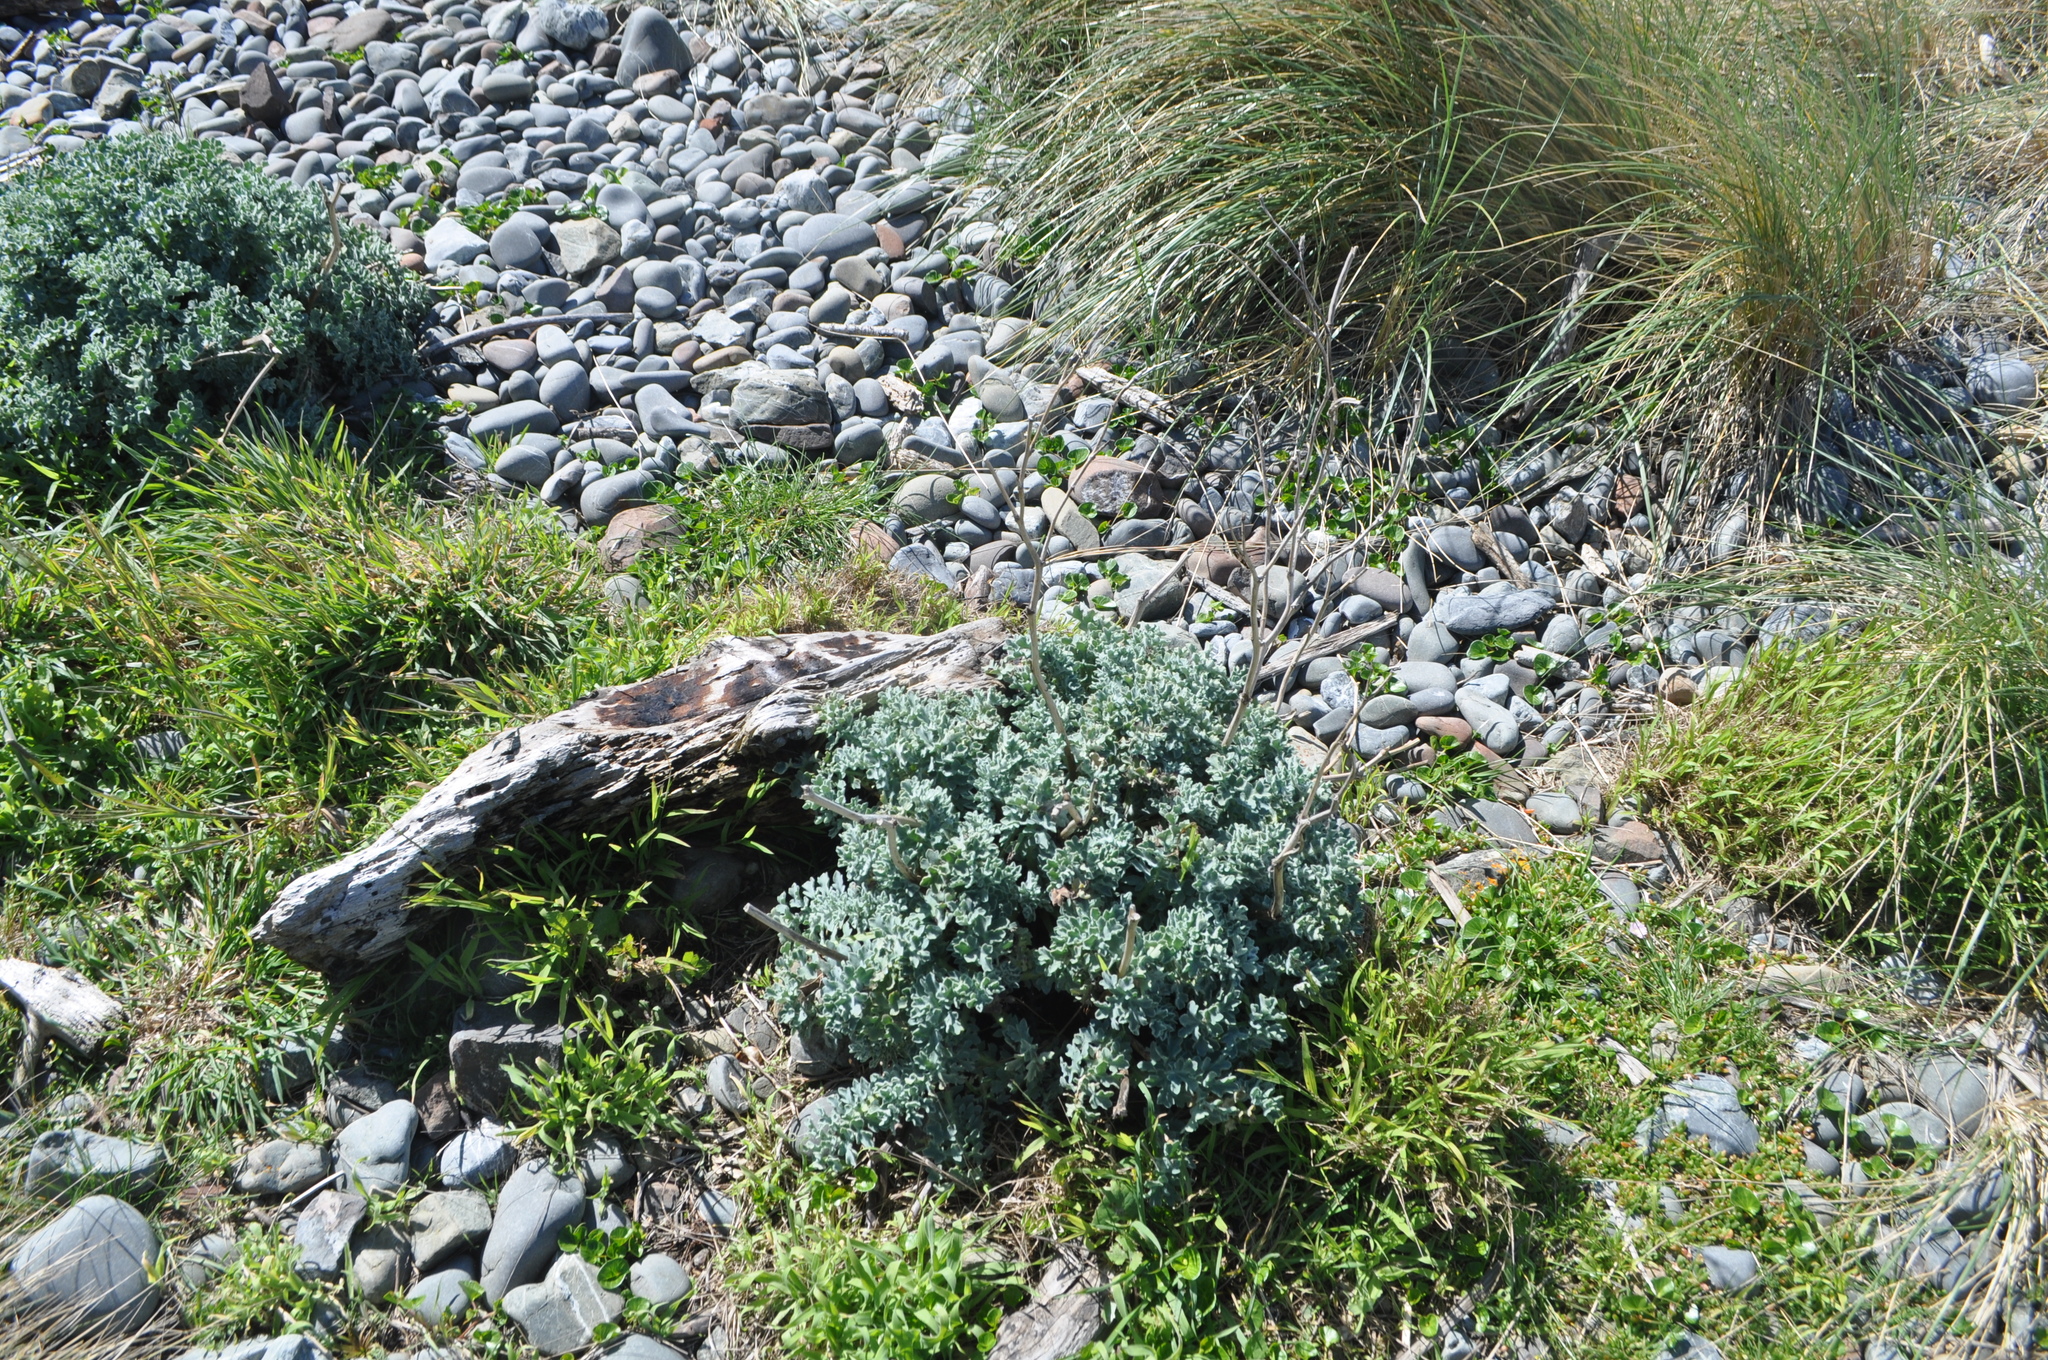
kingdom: Plantae
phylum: Tracheophyta
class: Magnoliopsida
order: Ranunculales
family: Papaveraceae
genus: Glaucium
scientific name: Glaucium flavum
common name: Yellow horned-poppy
